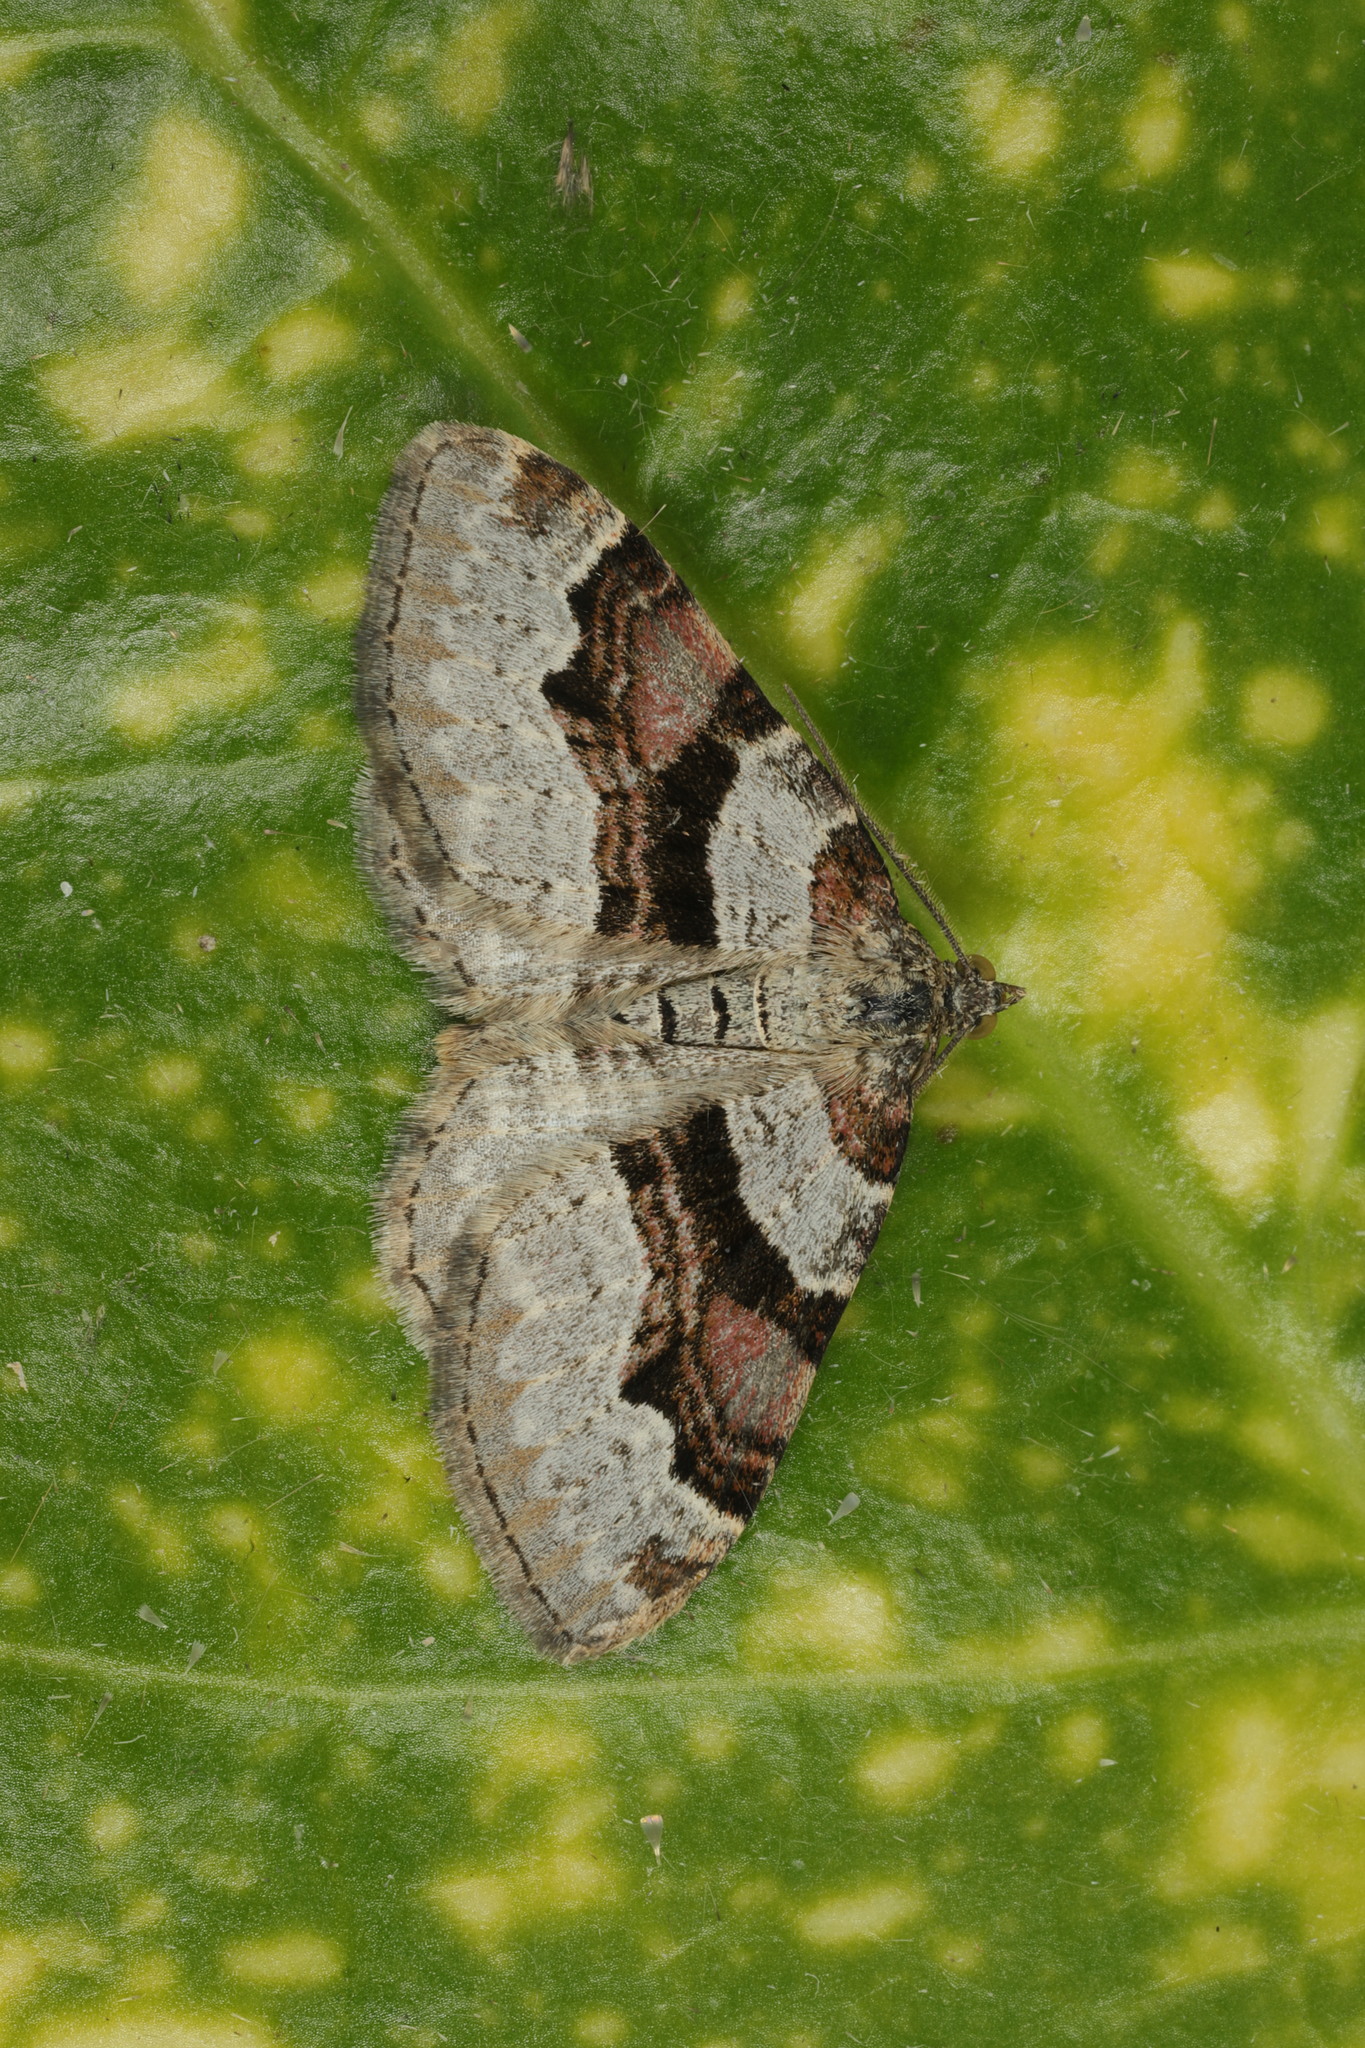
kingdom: Animalia
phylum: Arthropoda
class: Insecta
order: Lepidoptera
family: Geometridae
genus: Xanthorhoe
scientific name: Xanthorhoe designata
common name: Flame carpet
